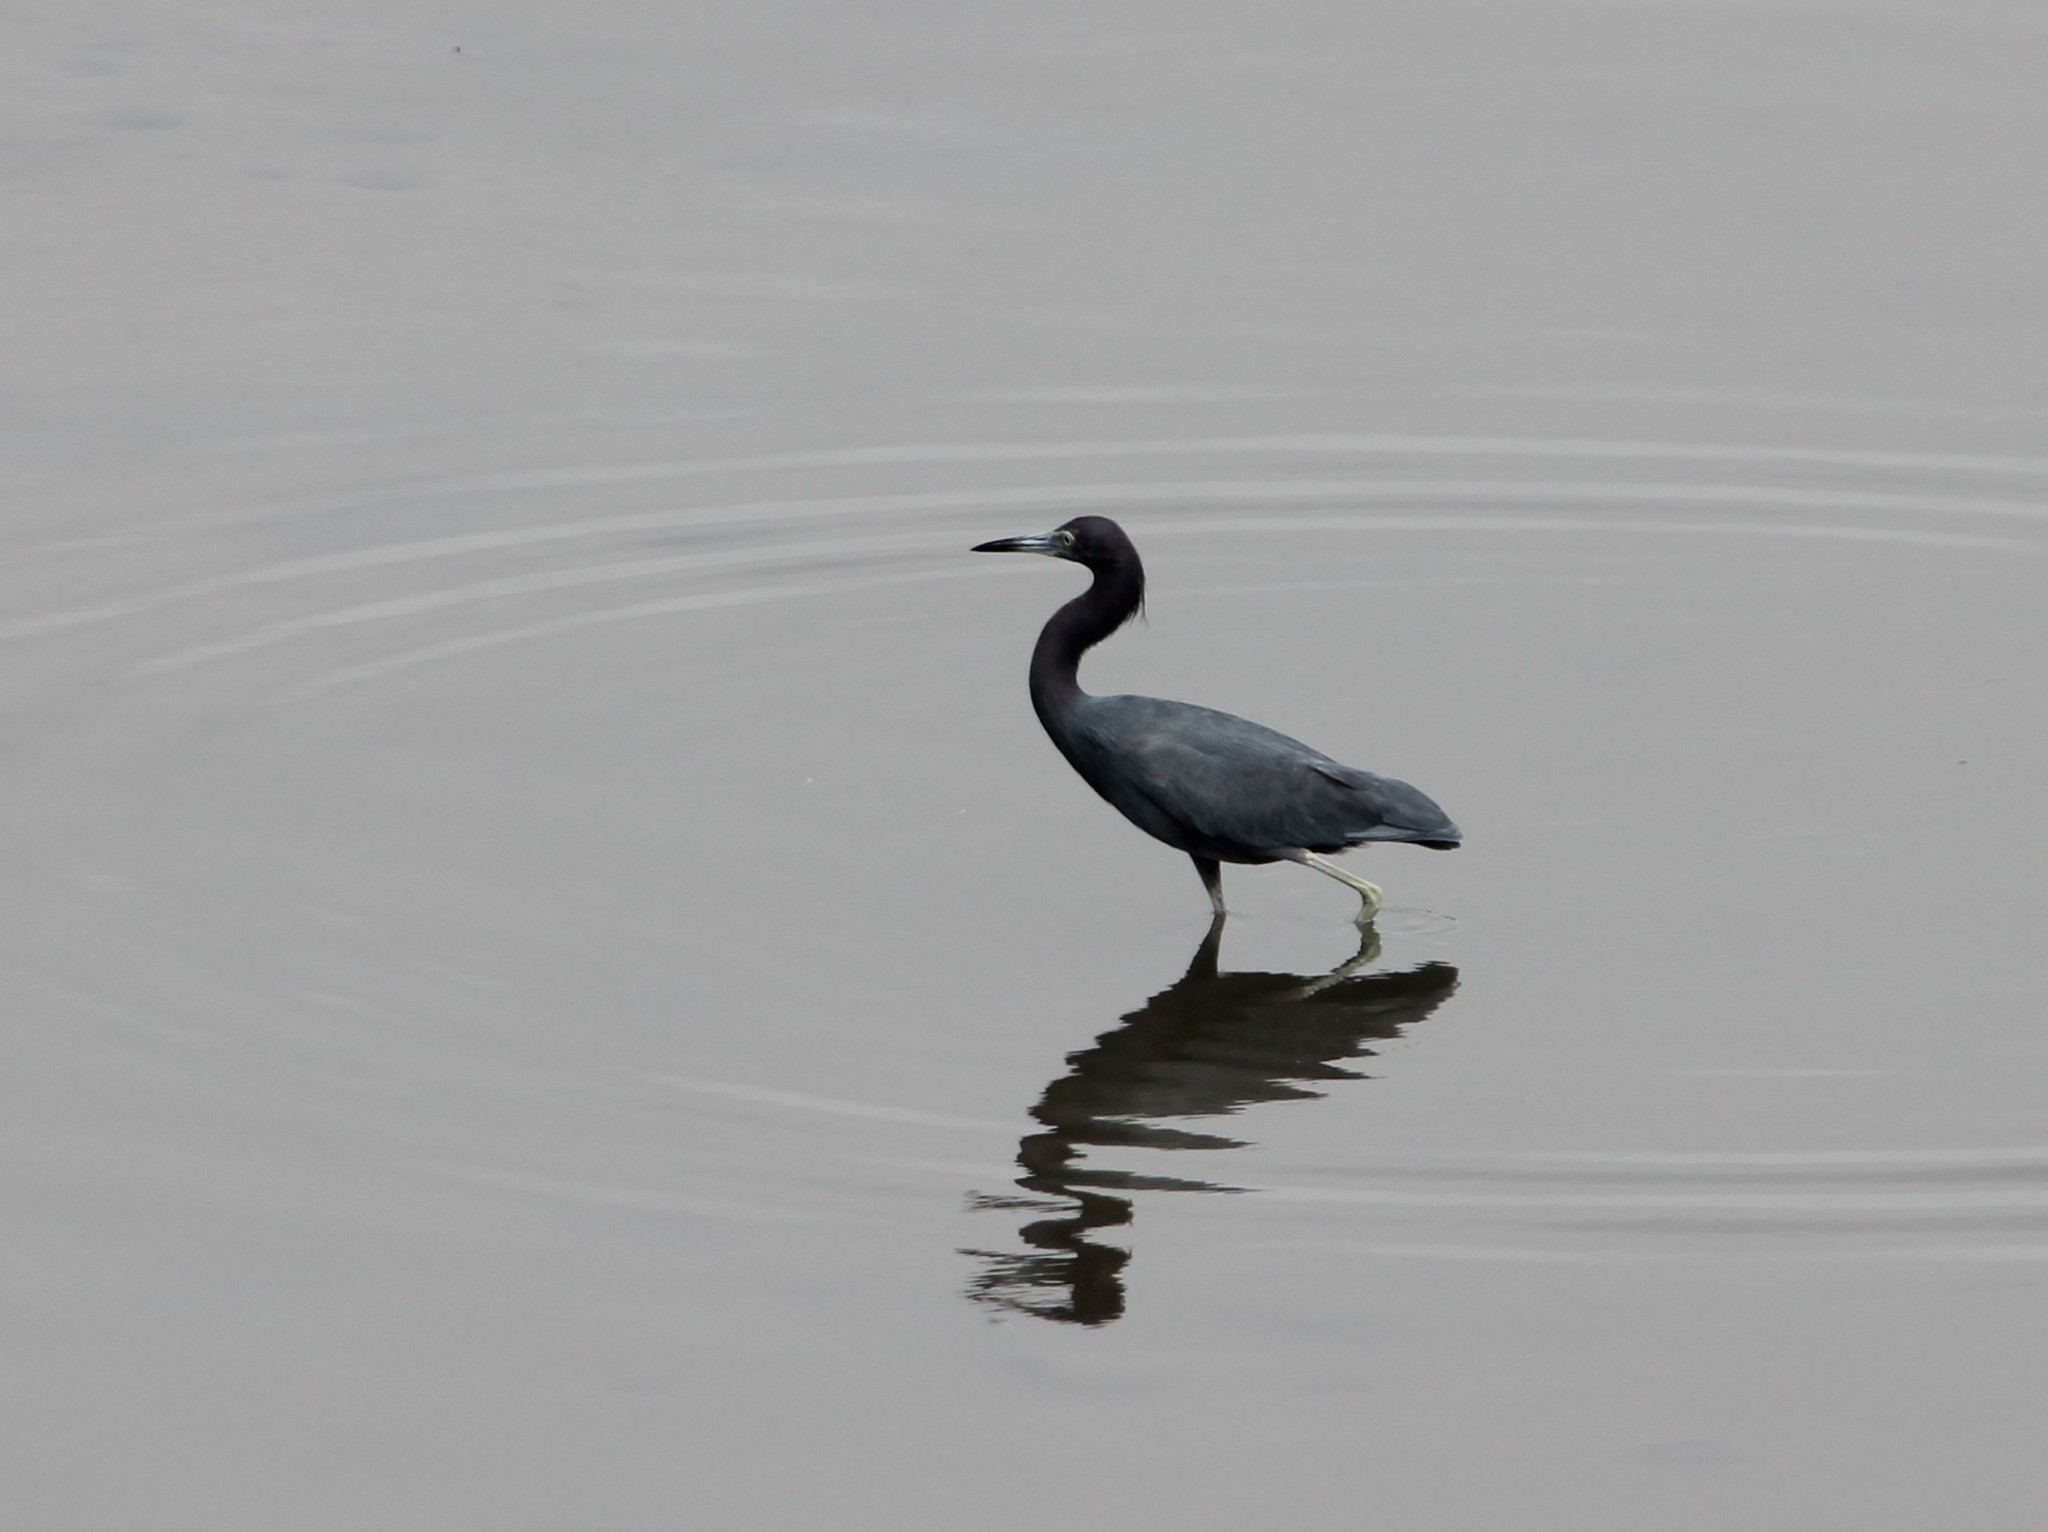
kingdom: Animalia
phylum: Chordata
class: Aves
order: Pelecaniformes
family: Ardeidae
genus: Egretta
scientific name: Egretta caerulea
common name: Little blue heron
